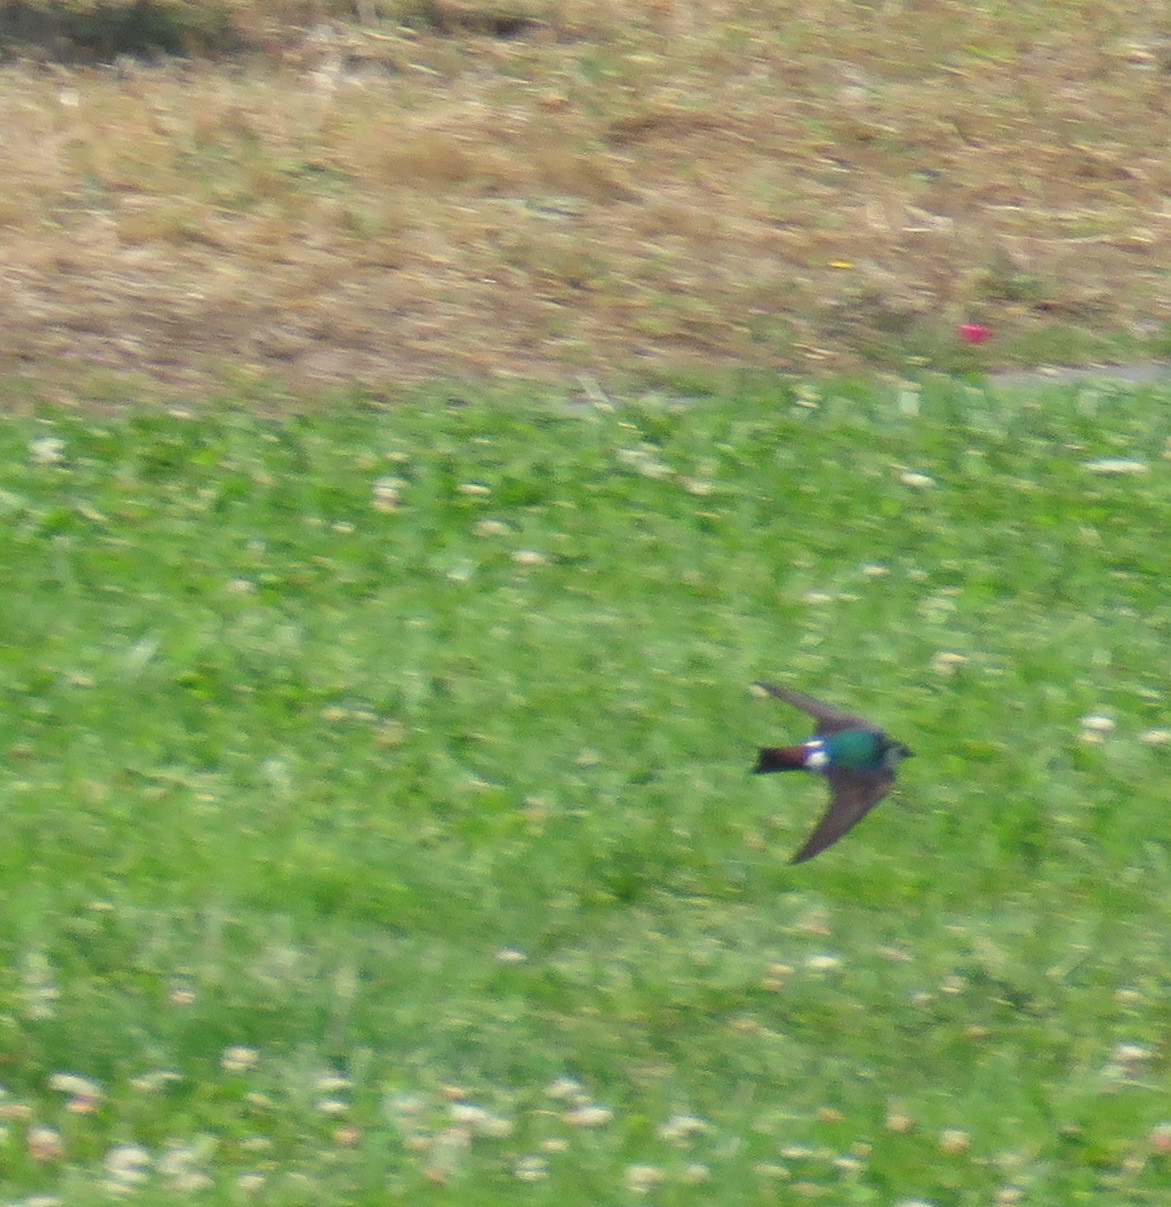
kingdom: Animalia
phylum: Chordata
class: Aves
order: Passeriformes
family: Hirundinidae
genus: Tachycineta
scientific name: Tachycineta thalassina
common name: Violet-green swallow
